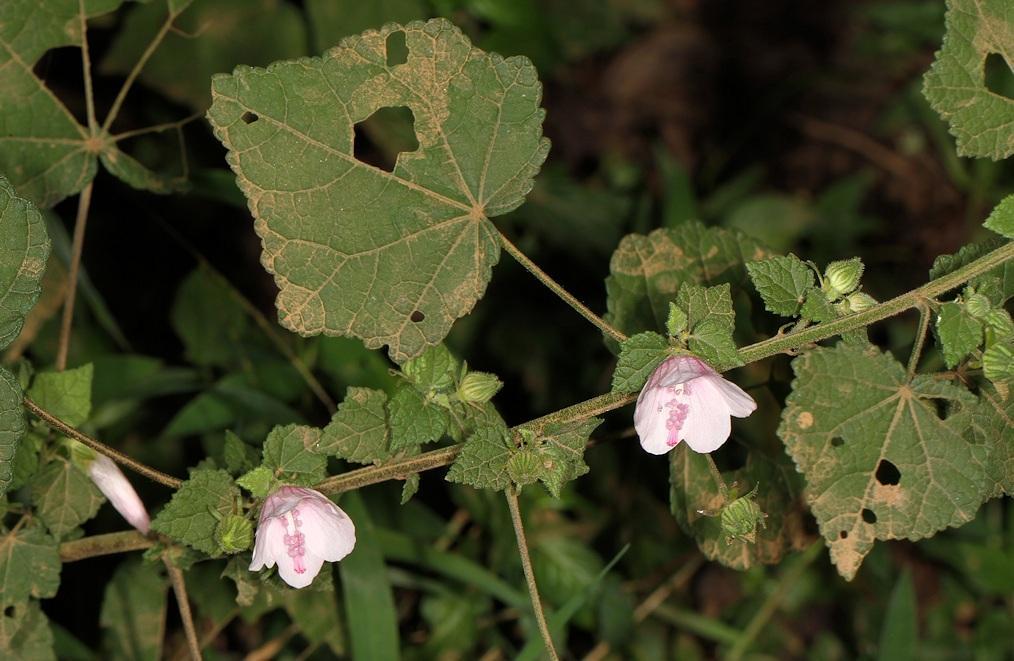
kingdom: Plantae
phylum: Tracheophyta
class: Magnoliopsida
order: Malvales
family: Malvaceae
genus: Pavonia
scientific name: Pavonia columella
